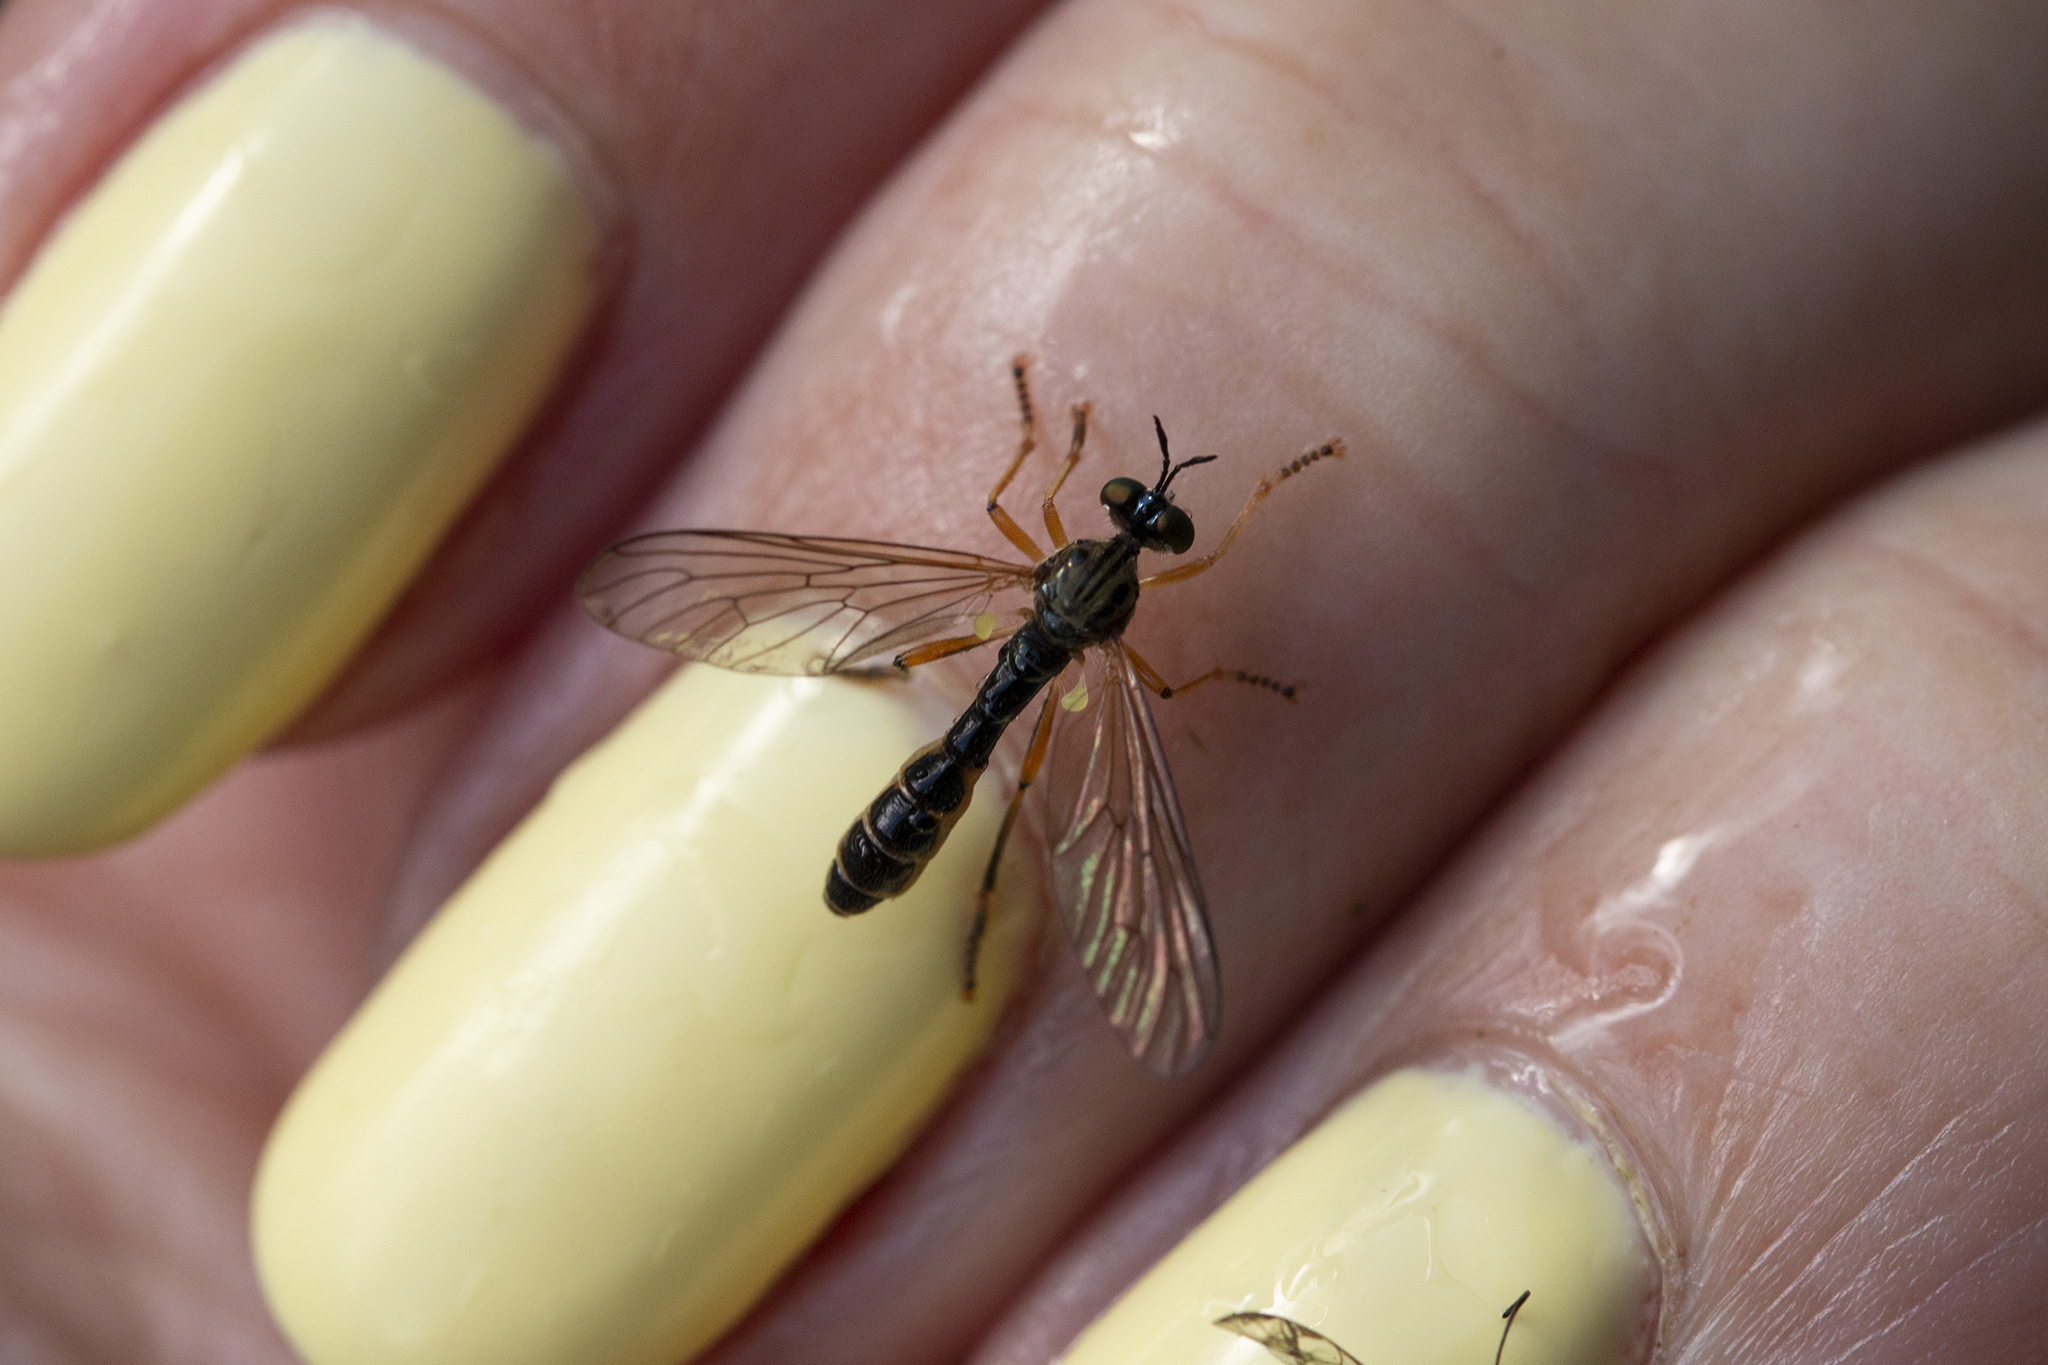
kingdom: Animalia
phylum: Arthropoda
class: Insecta
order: Diptera
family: Asilidae
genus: Dioctria
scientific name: Dioctria linearis
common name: Small yellow-legged robberfly
